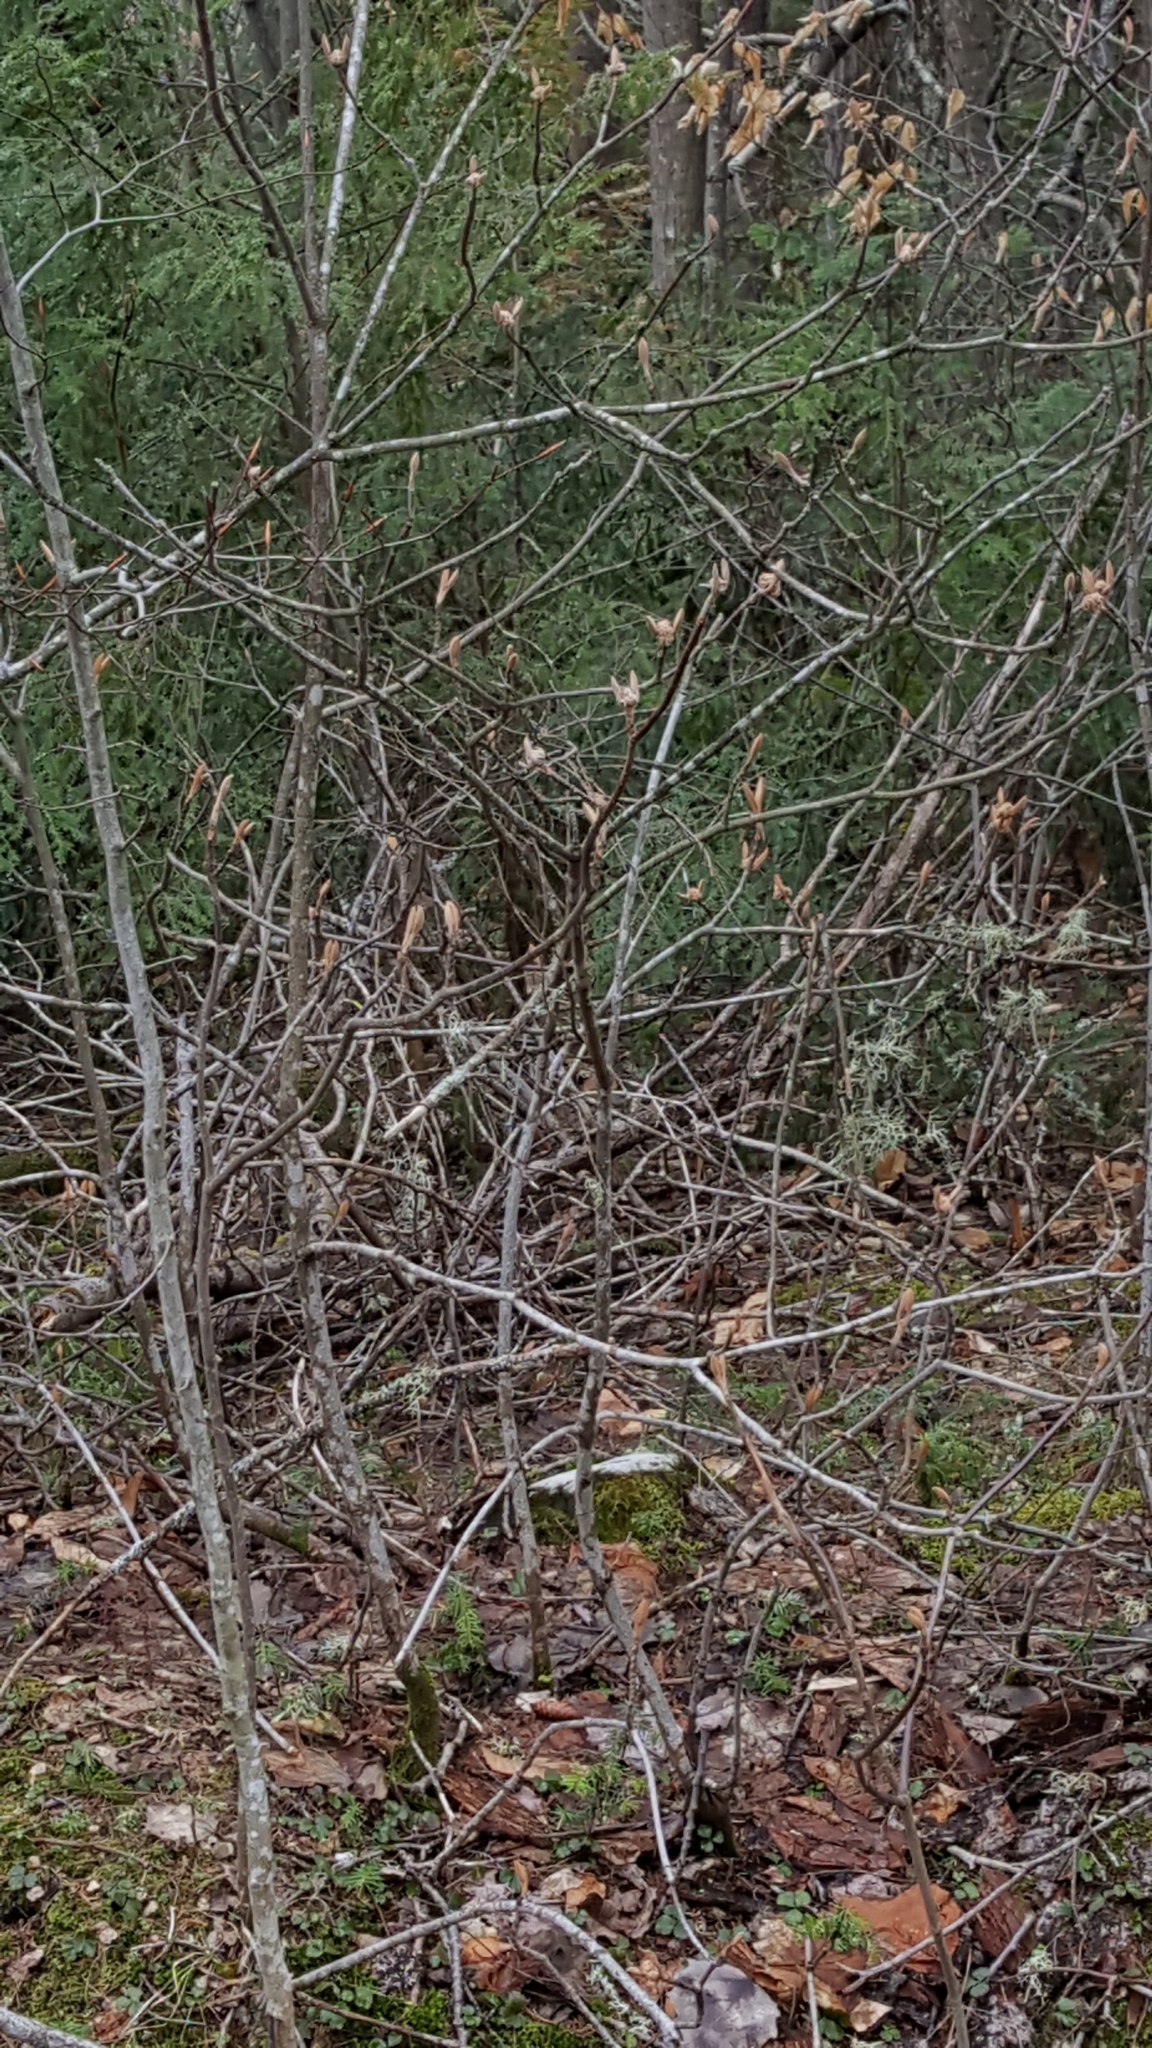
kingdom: Plantae
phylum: Tracheophyta
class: Magnoliopsida
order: Dipsacales
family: Viburnaceae
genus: Viburnum
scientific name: Viburnum lantanoides
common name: Hobblebush
